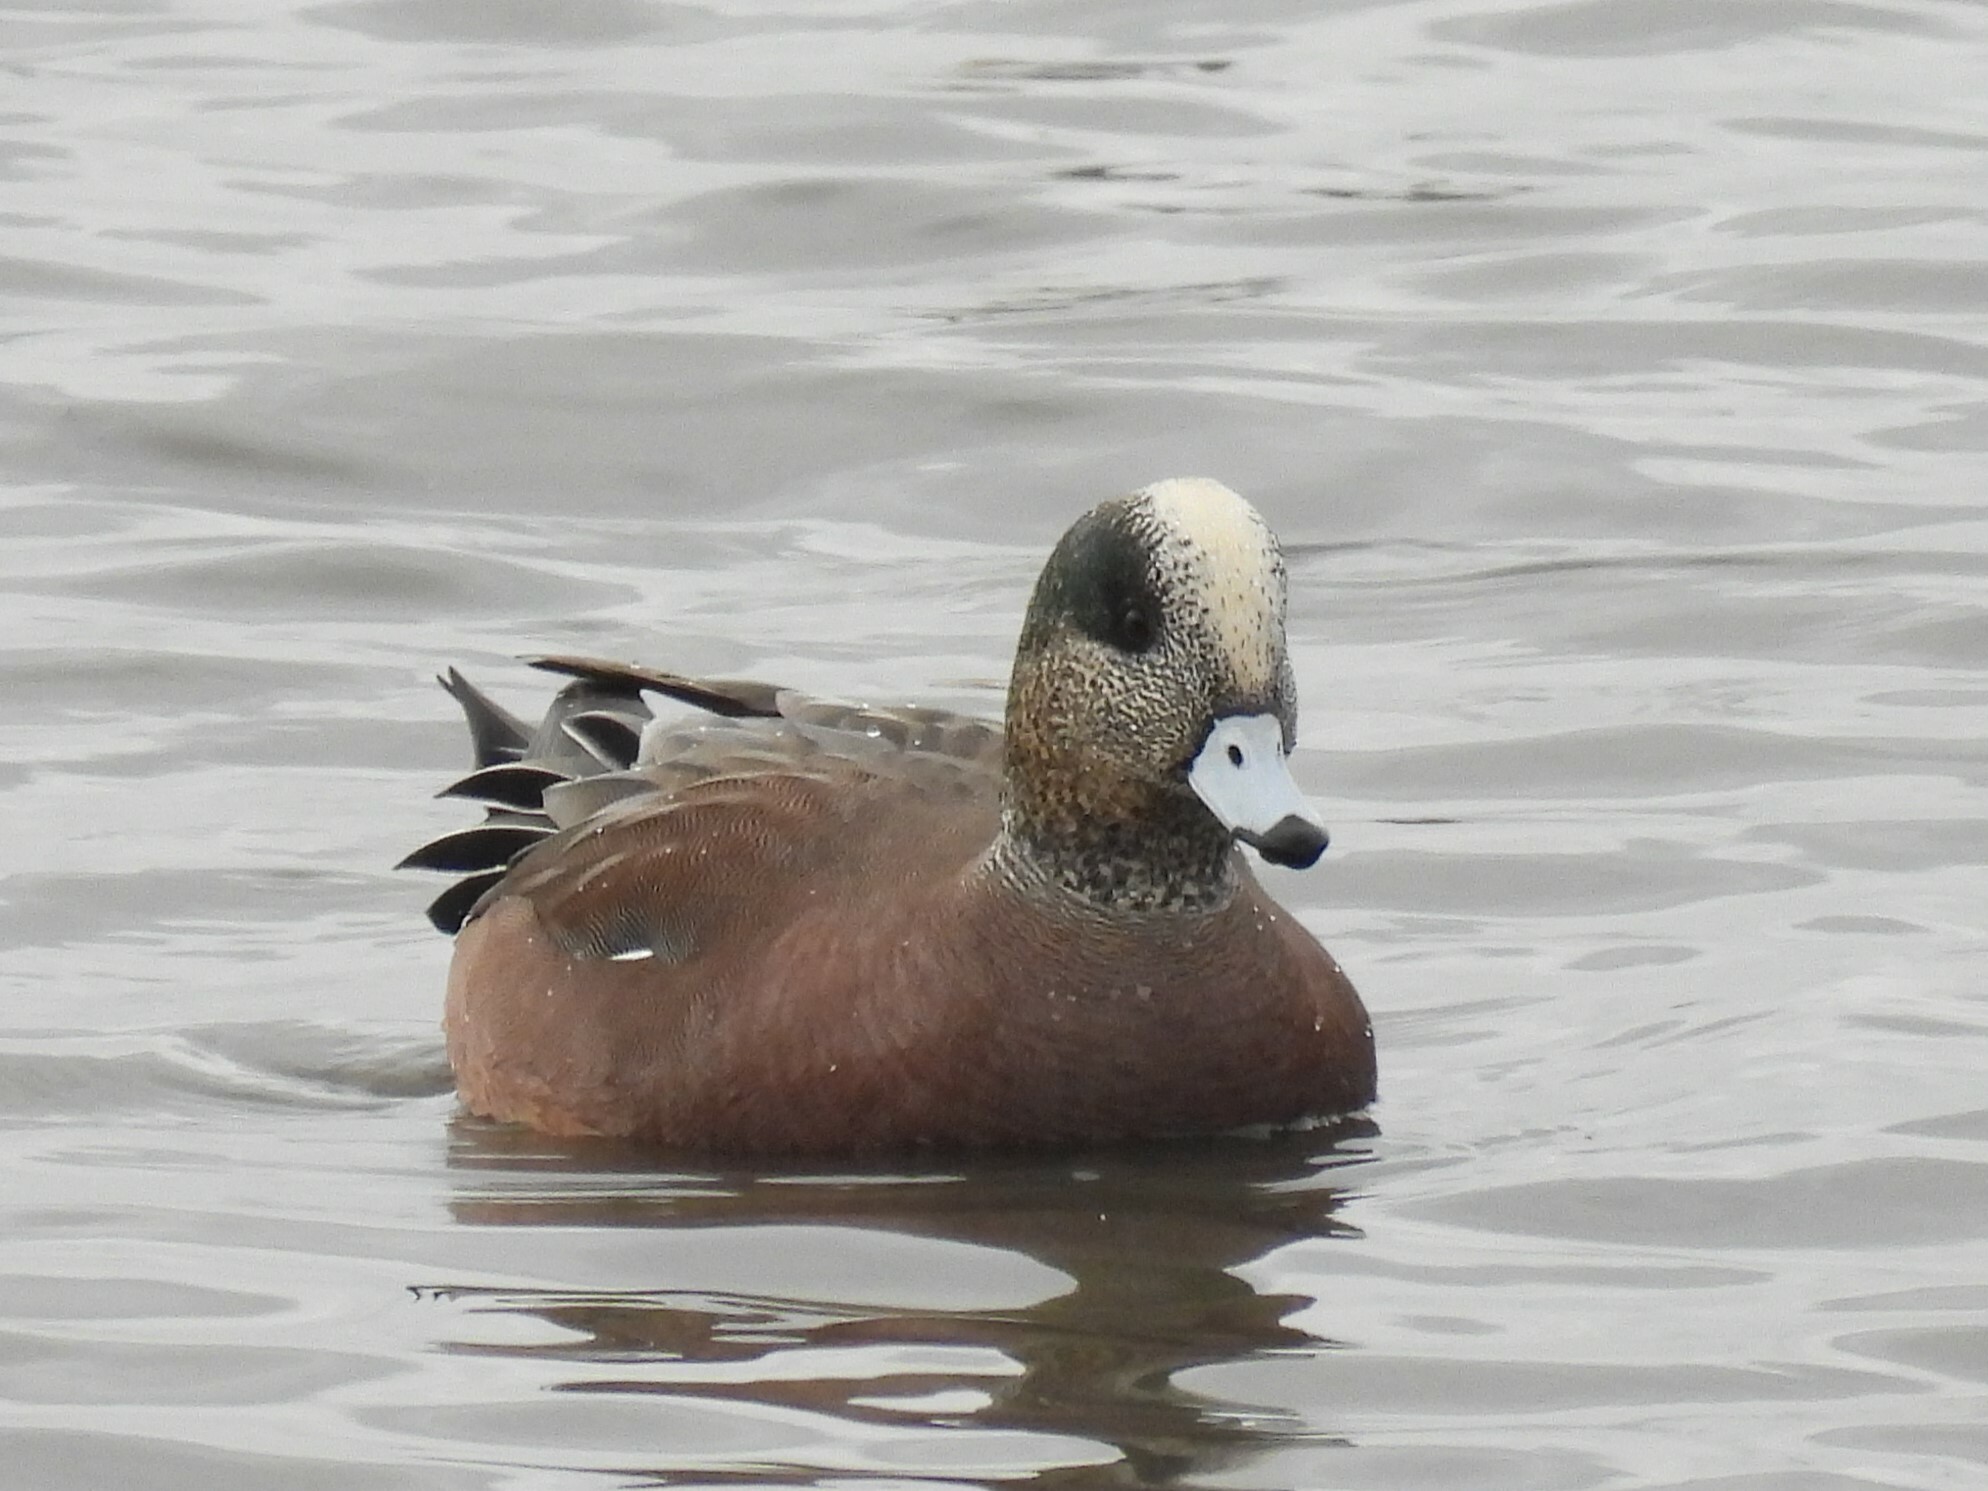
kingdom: Animalia
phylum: Chordata
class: Aves
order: Anseriformes
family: Anatidae
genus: Mareca
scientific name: Mareca americana
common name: American wigeon
